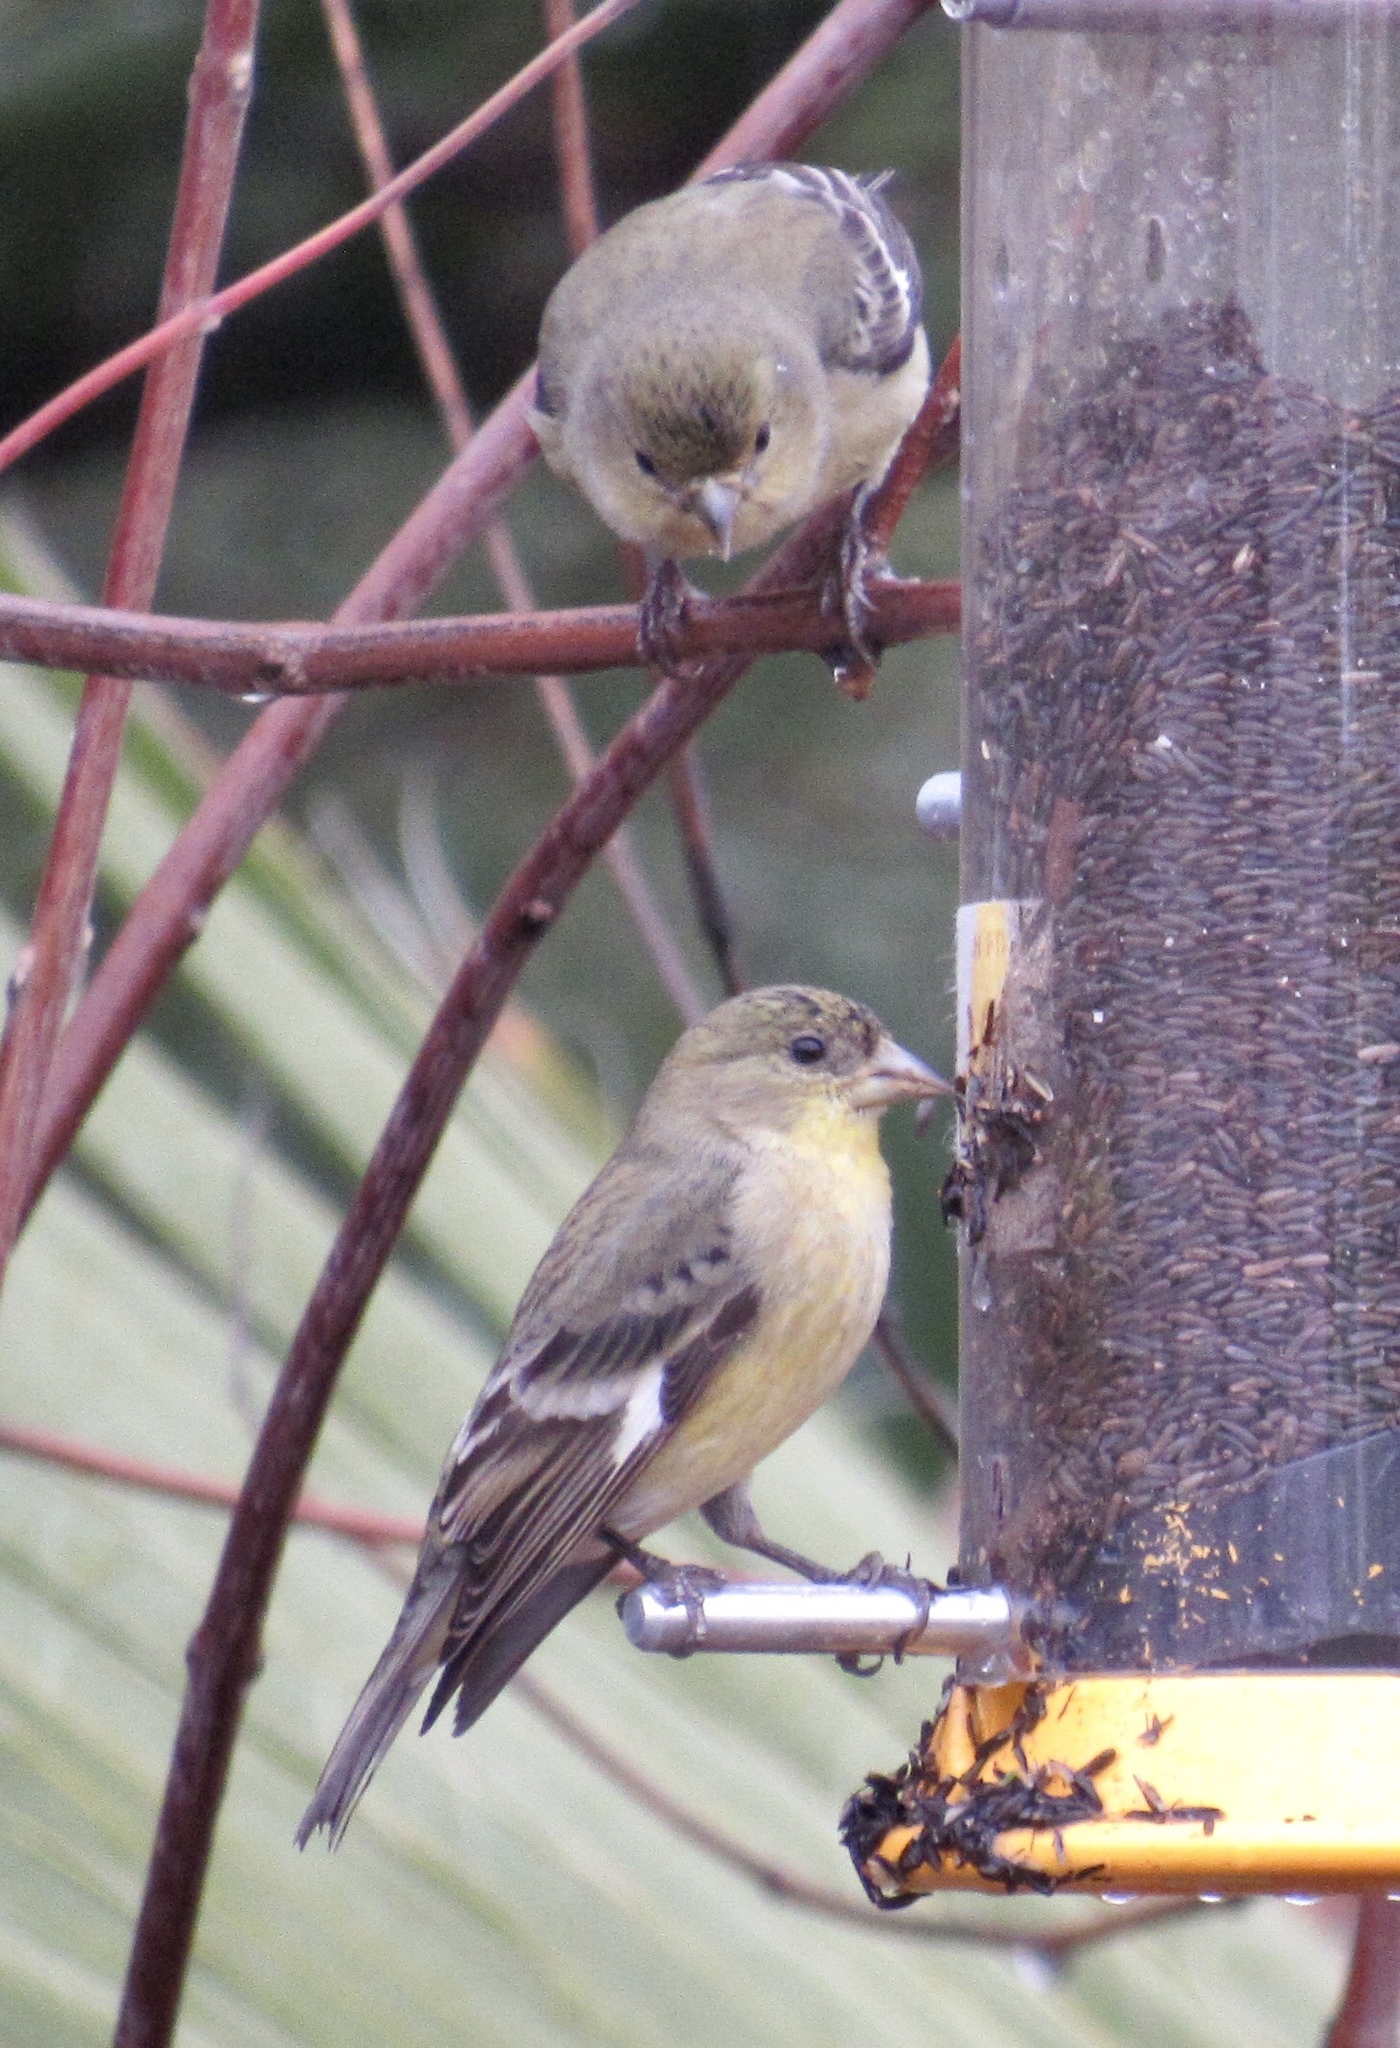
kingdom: Animalia
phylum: Chordata
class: Aves
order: Passeriformes
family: Fringillidae
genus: Spinus
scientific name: Spinus psaltria
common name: Lesser goldfinch
